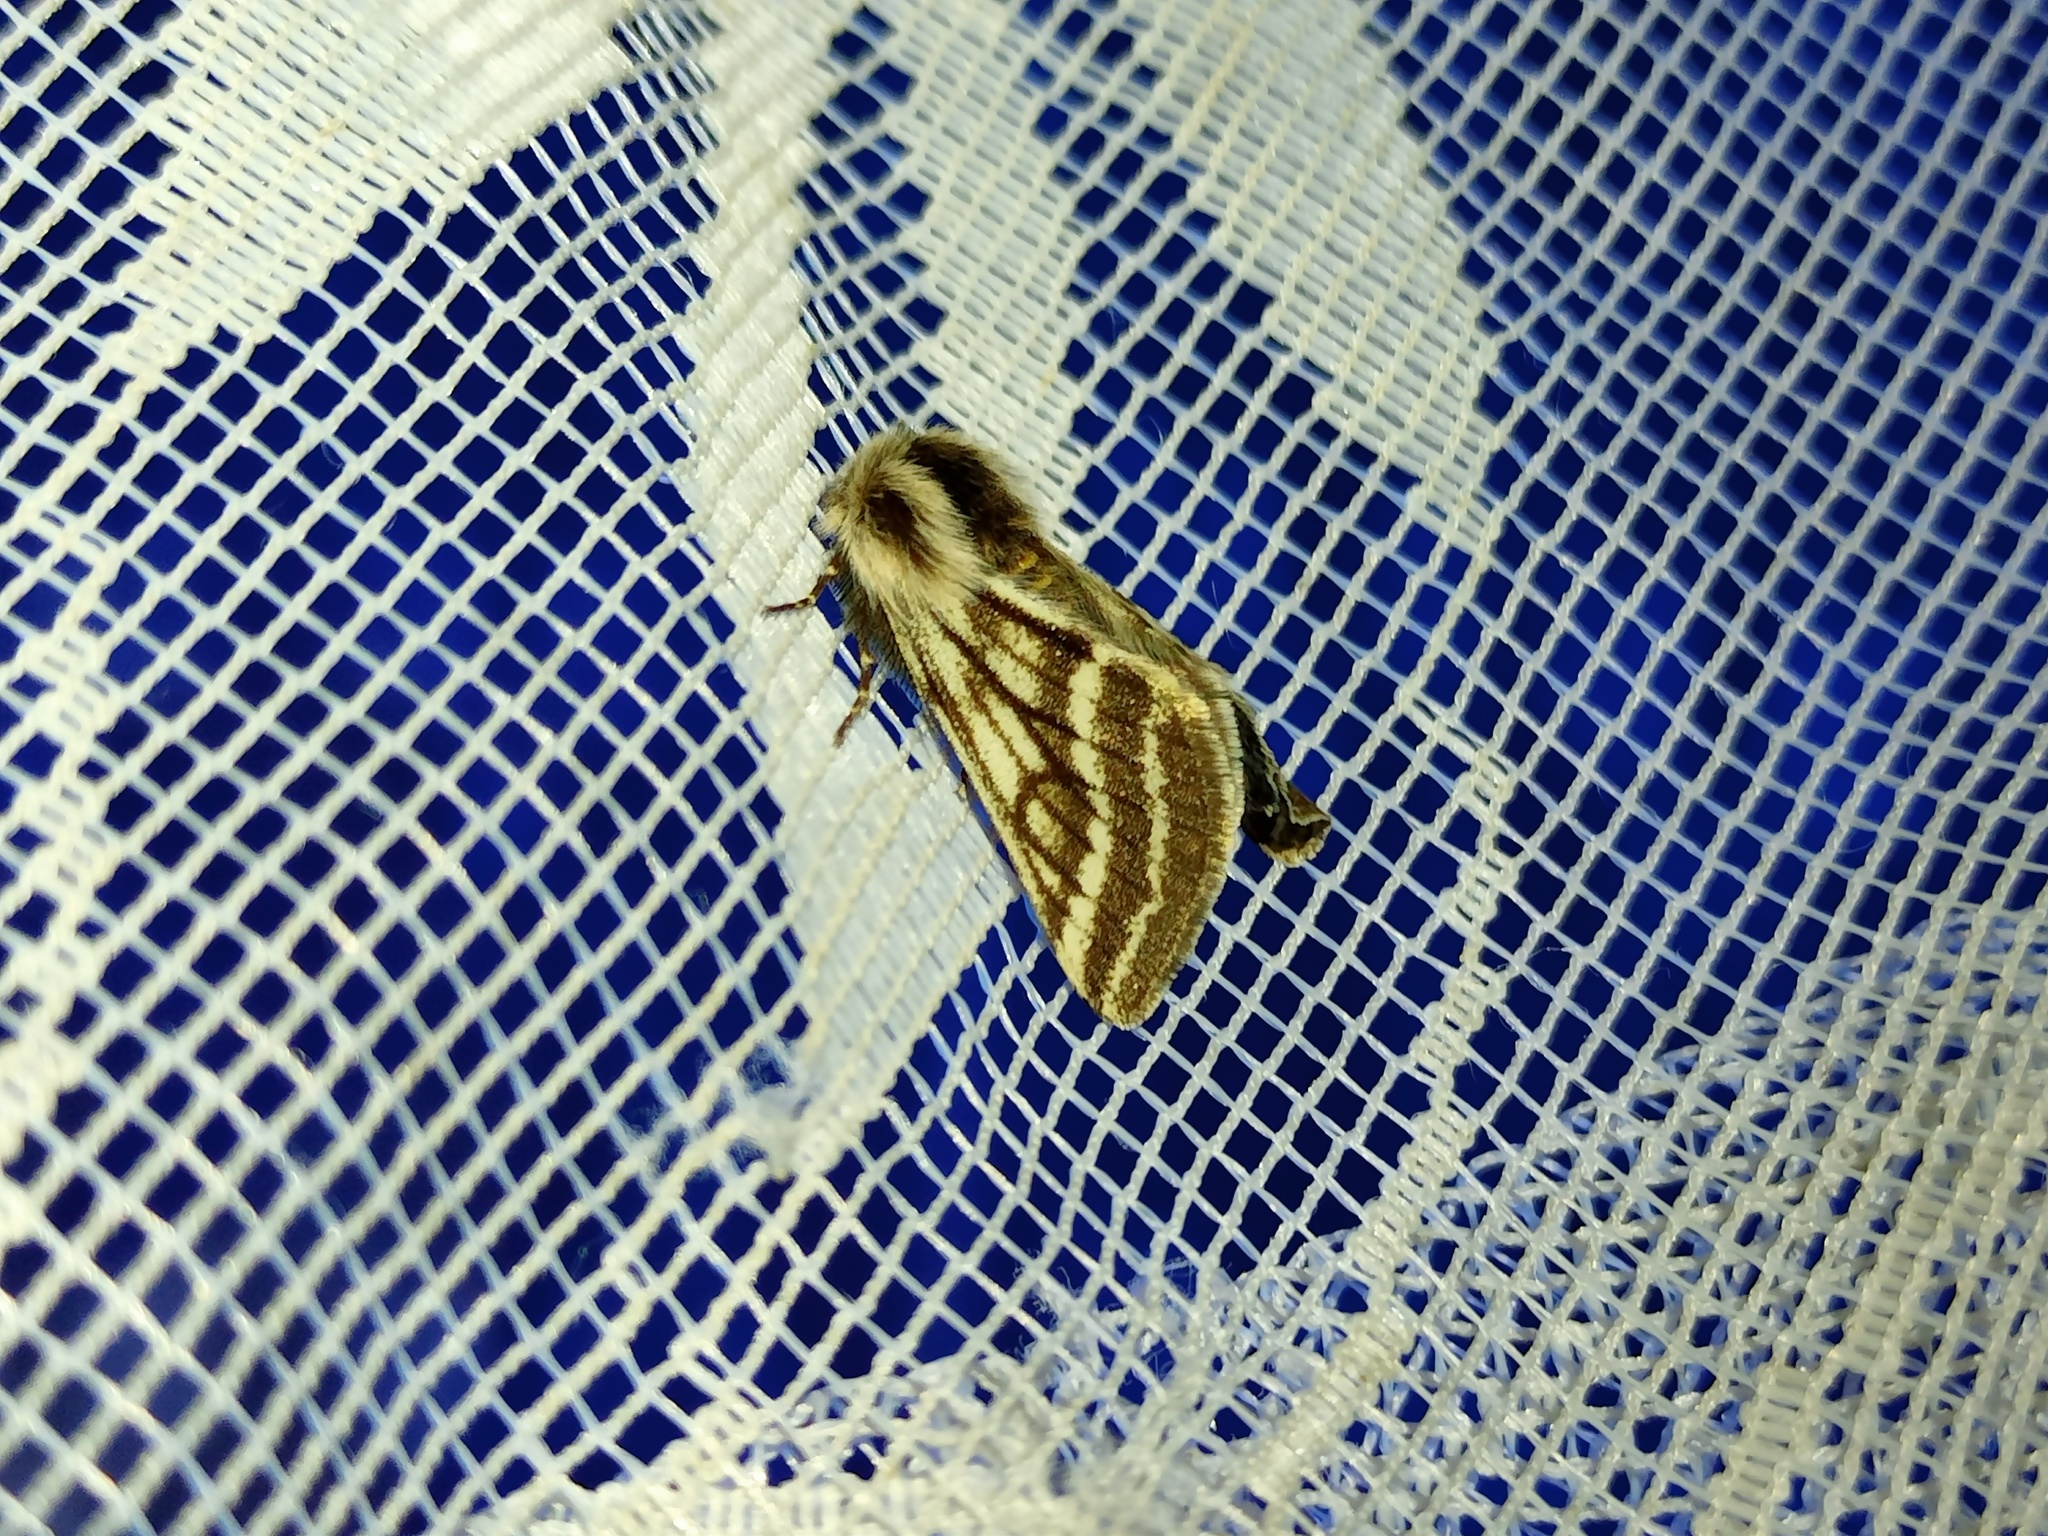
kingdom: Animalia
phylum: Arthropoda
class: Insecta
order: Lepidoptera
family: Geometridae
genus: Lycia
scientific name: Lycia zonaria
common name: Belted beauty
